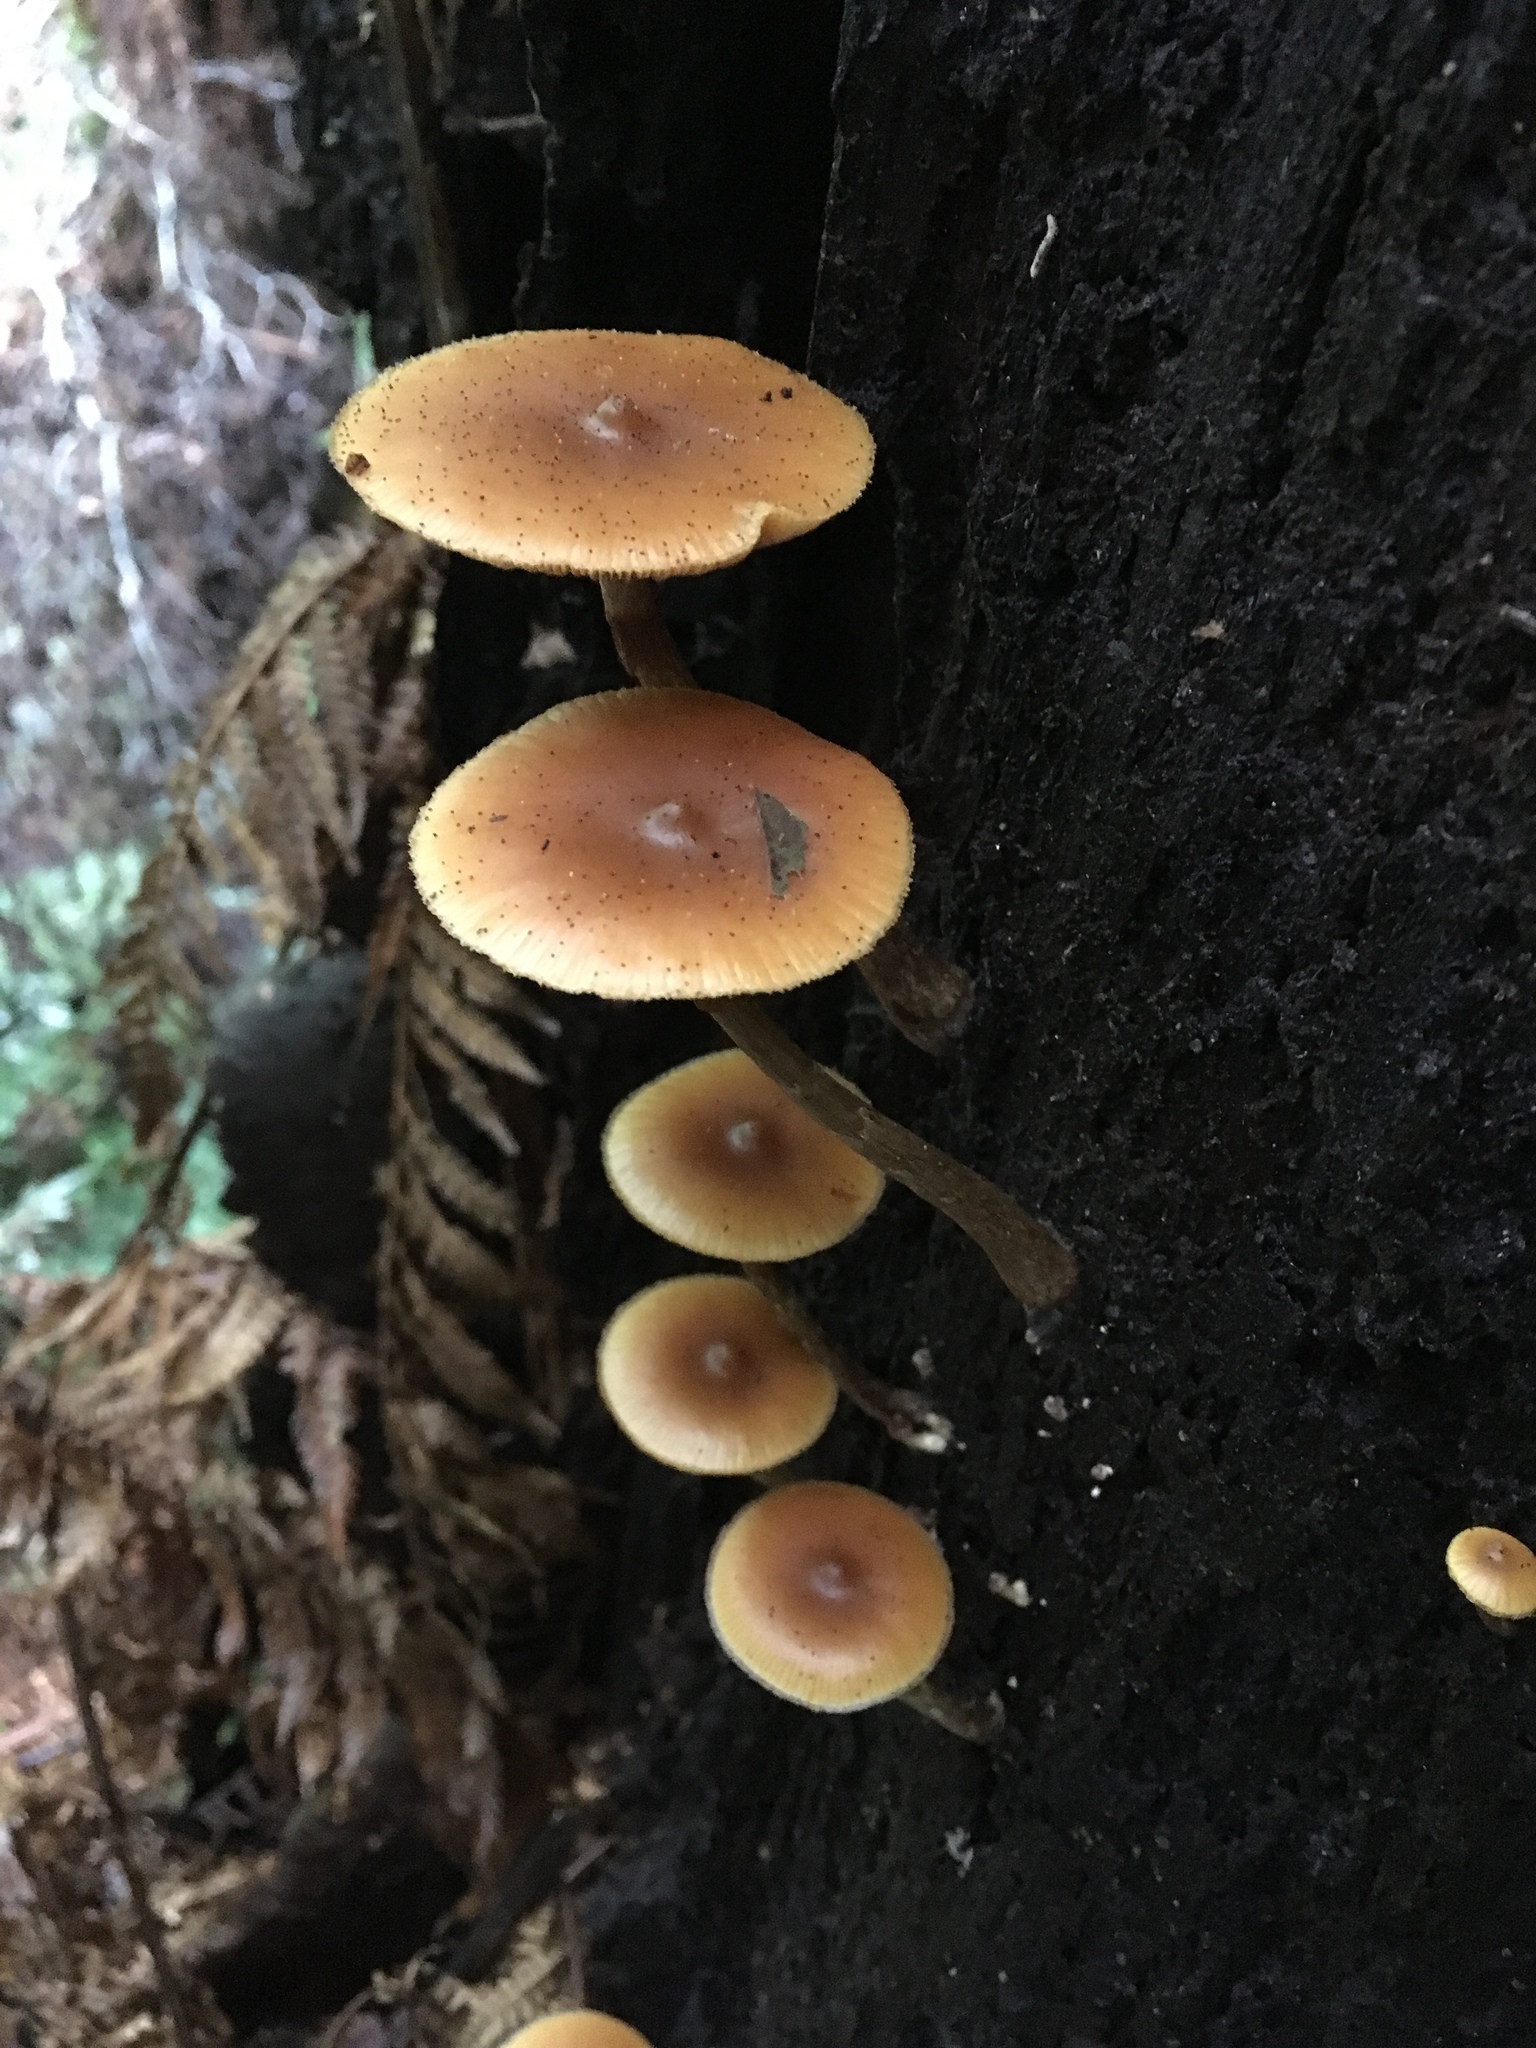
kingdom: Fungi
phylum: Basidiomycota
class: Agaricomycetes
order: Agaricales
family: Hymenogastraceae
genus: Galerina
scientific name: Galerina patagonica
